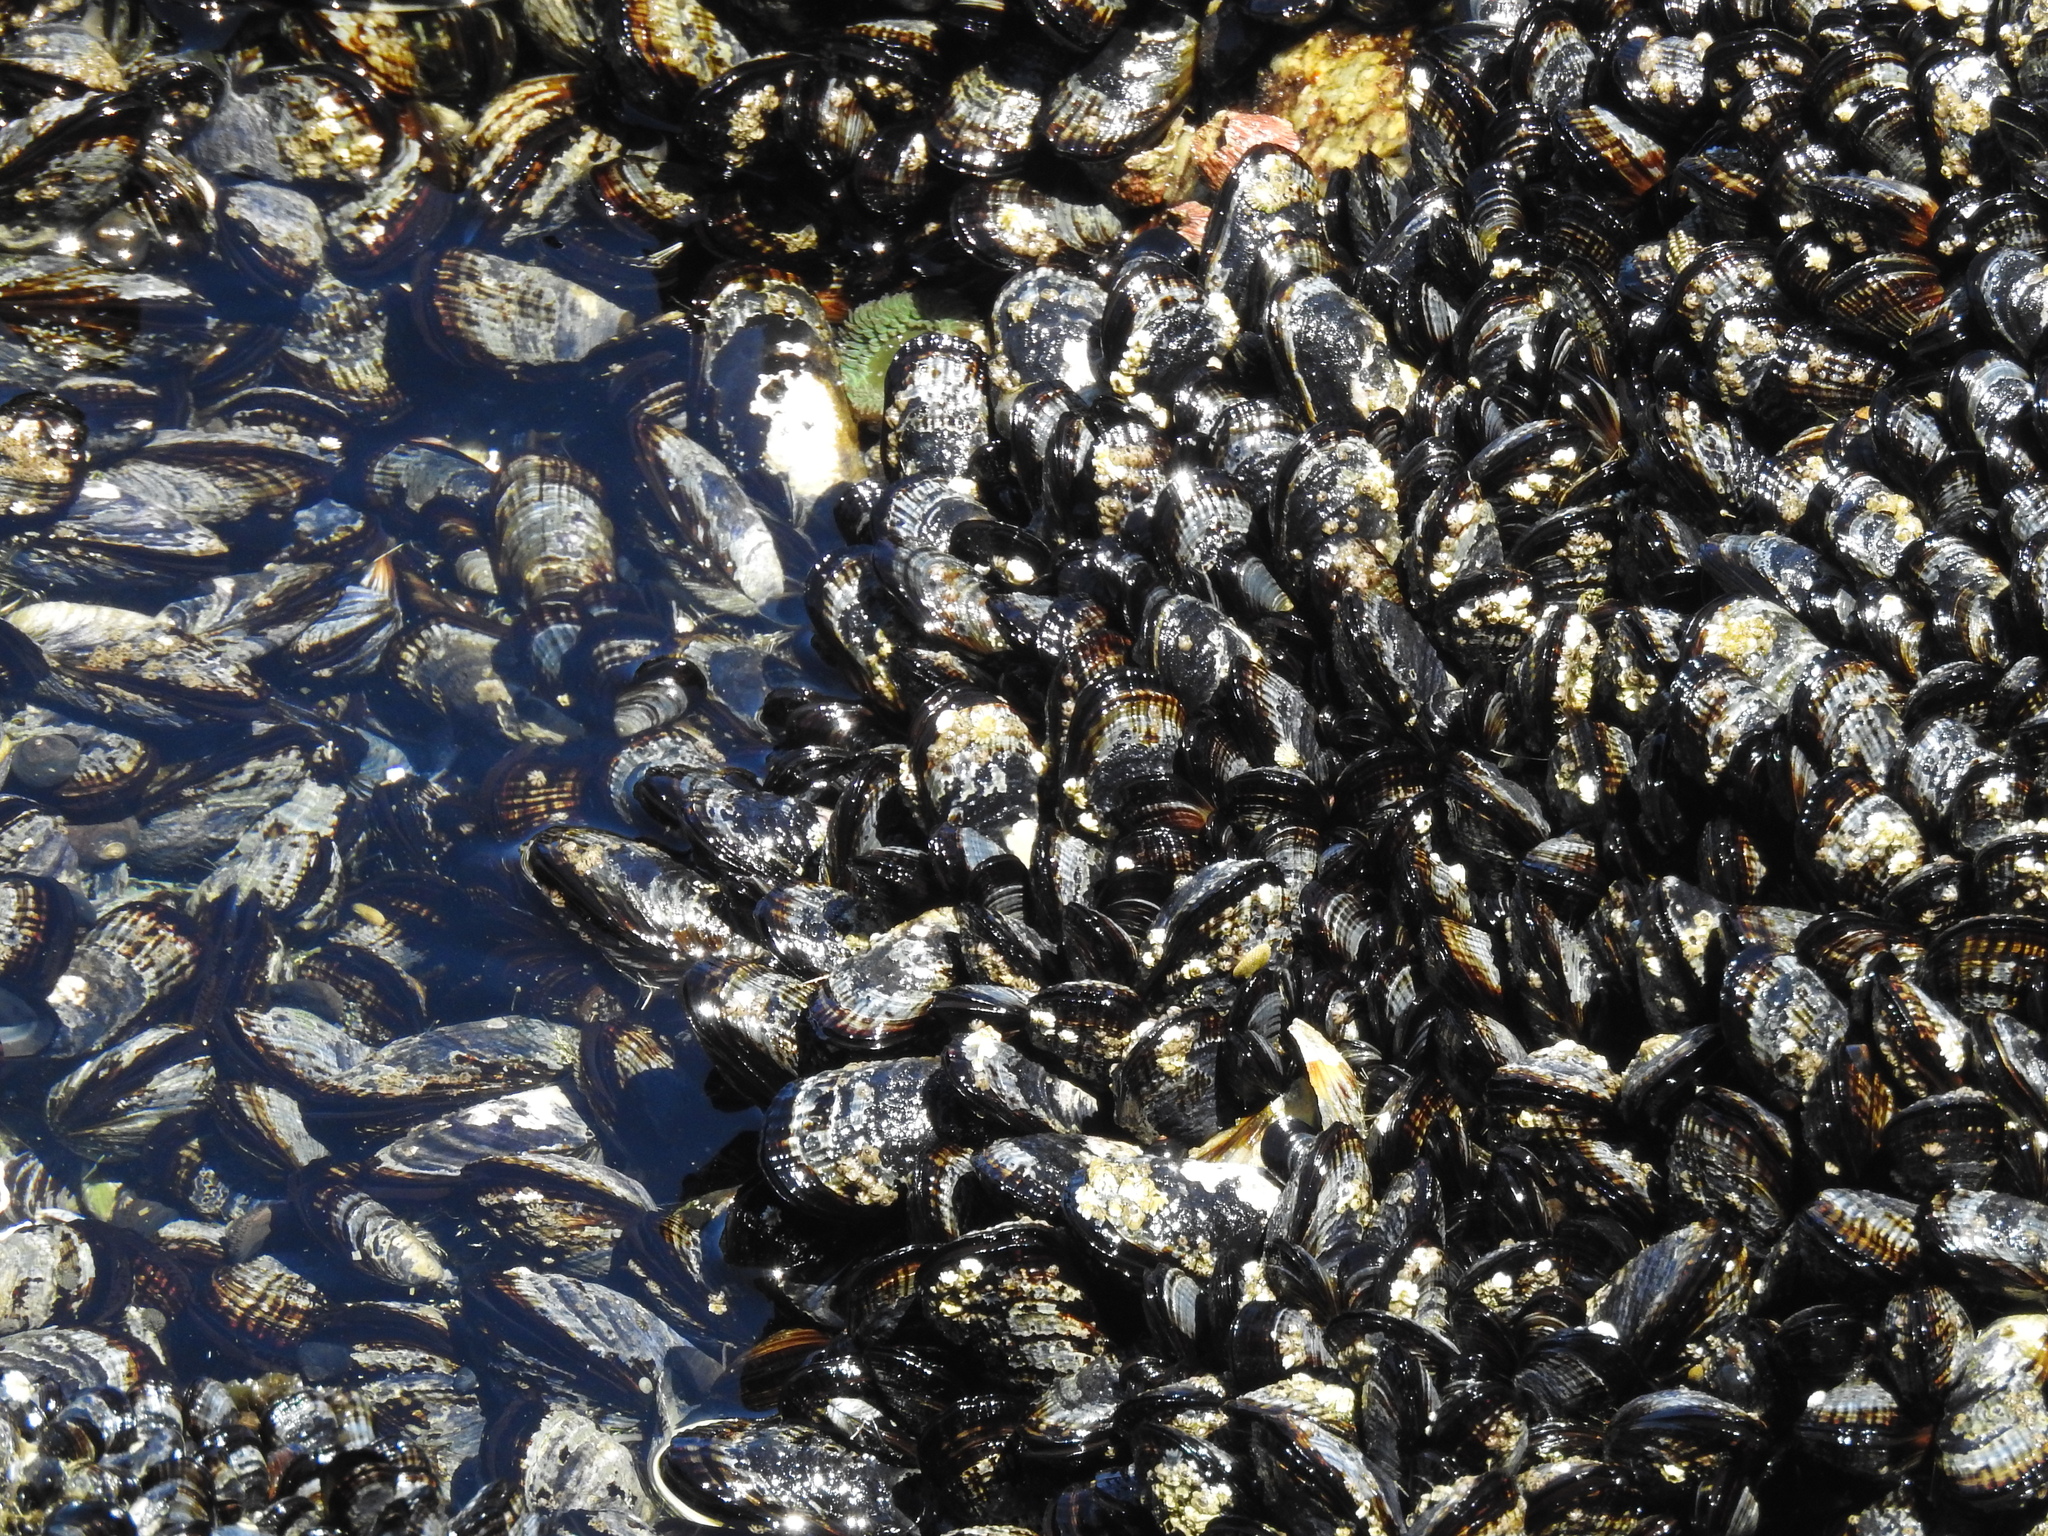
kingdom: Animalia
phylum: Mollusca
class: Bivalvia
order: Mytilida
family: Mytilidae
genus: Mytilus
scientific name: Mytilus californianus
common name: California mussel
